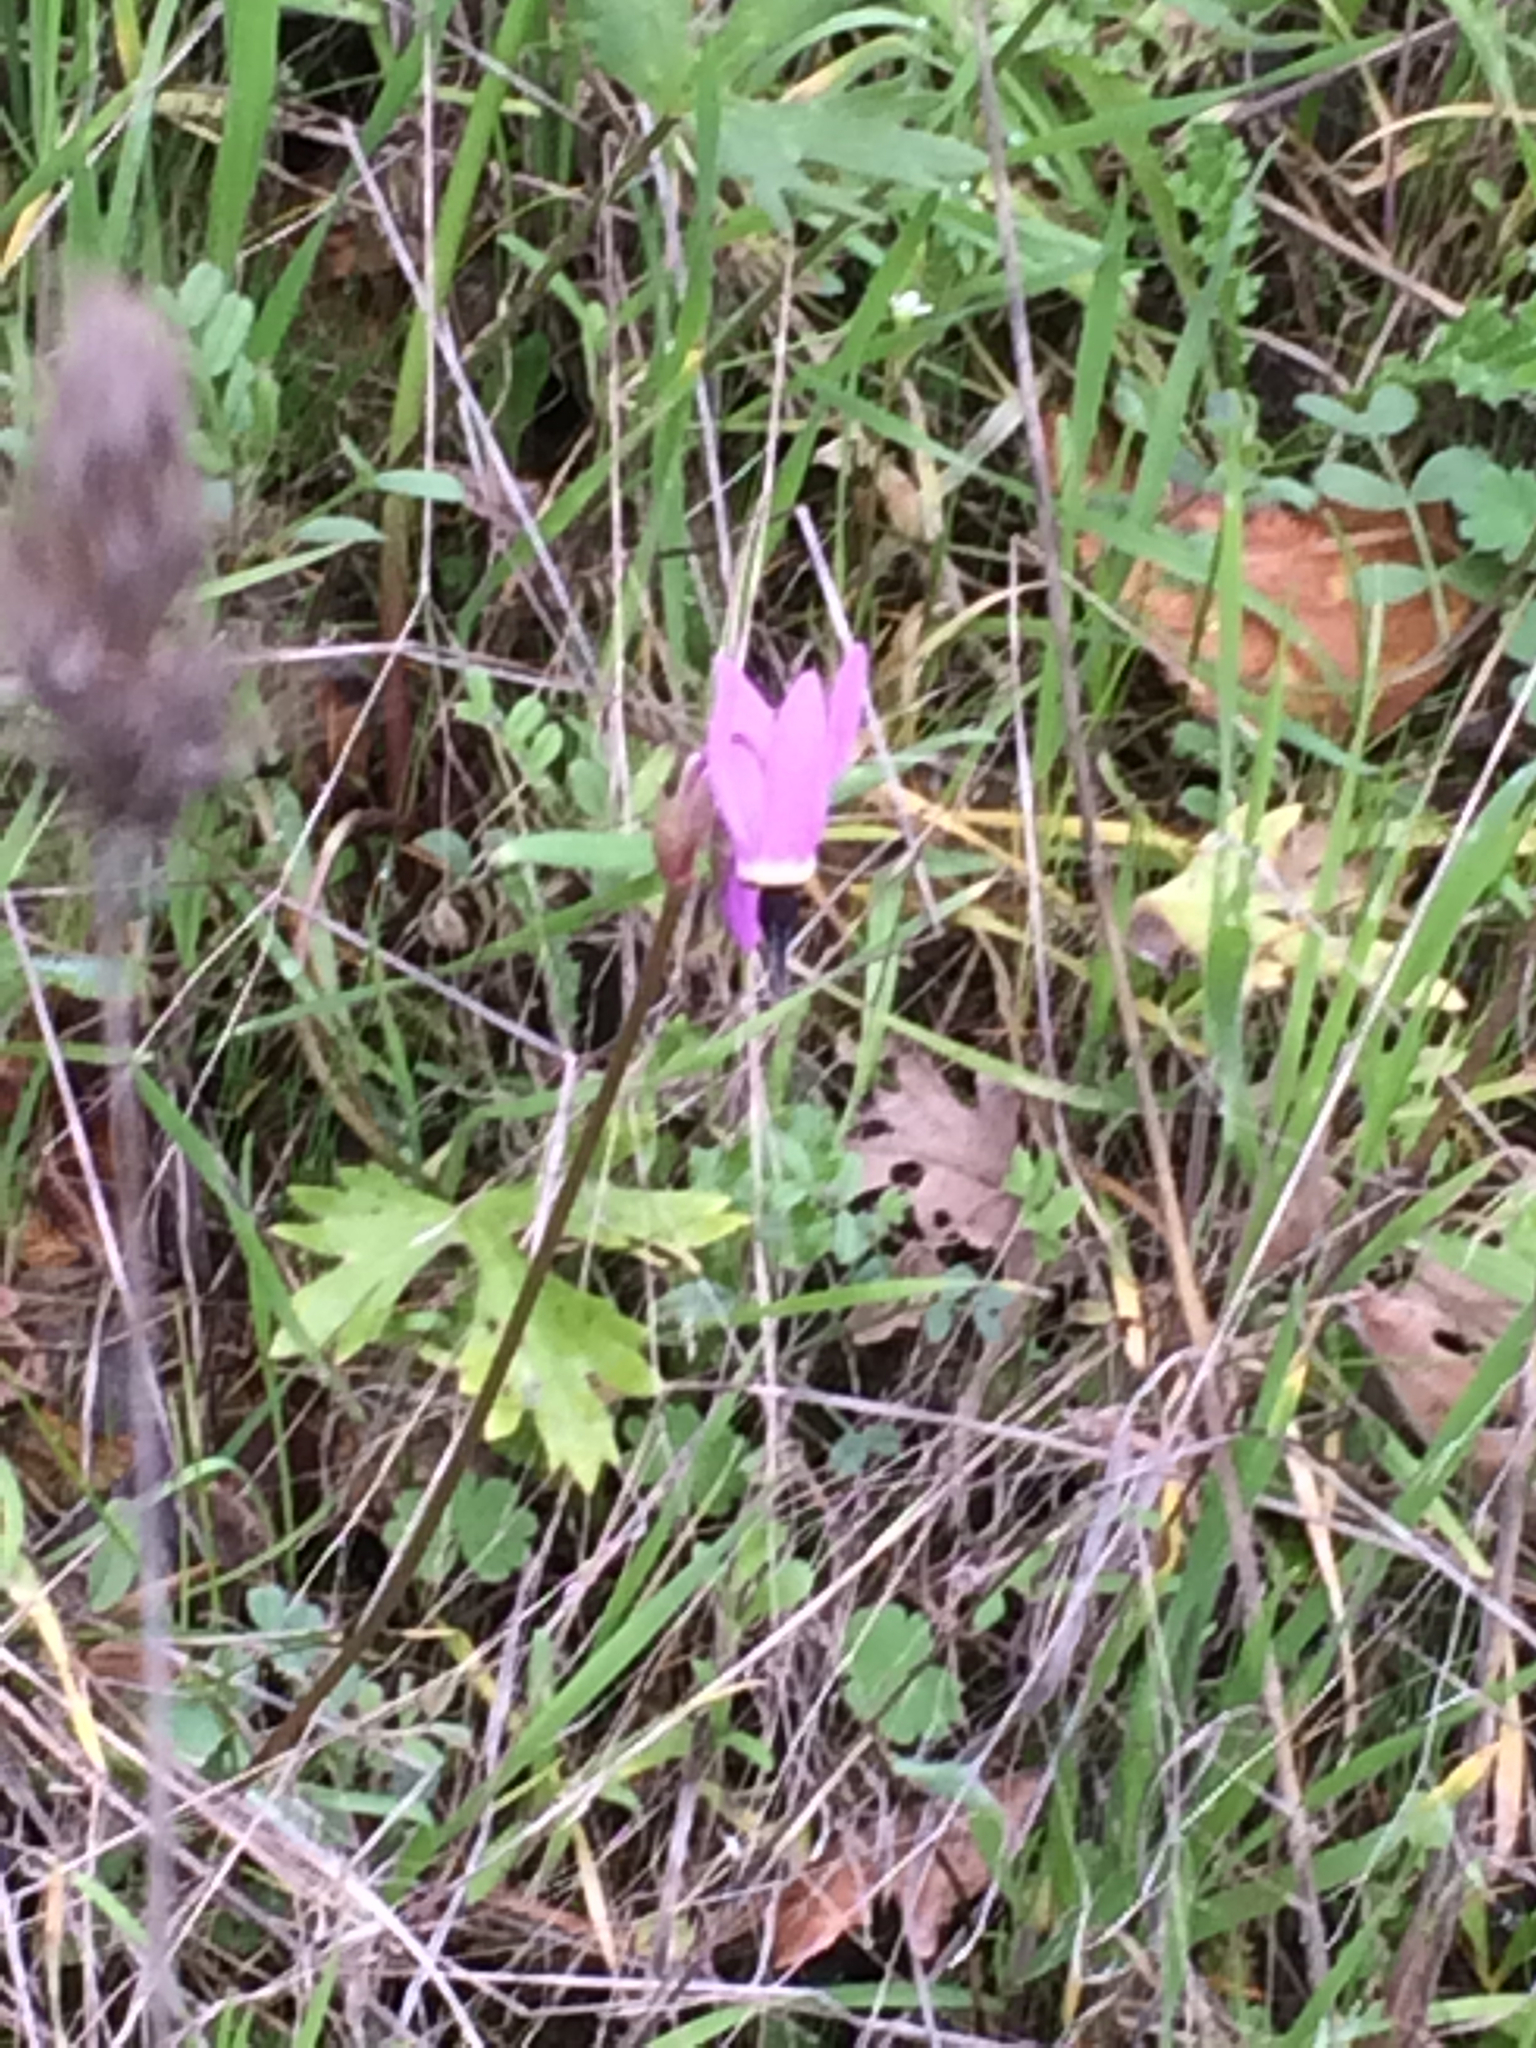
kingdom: Plantae
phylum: Tracheophyta
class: Magnoliopsida
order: Ericales
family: Primulaceae
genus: Dodecatheon
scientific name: Dodecatheon hendersonii
